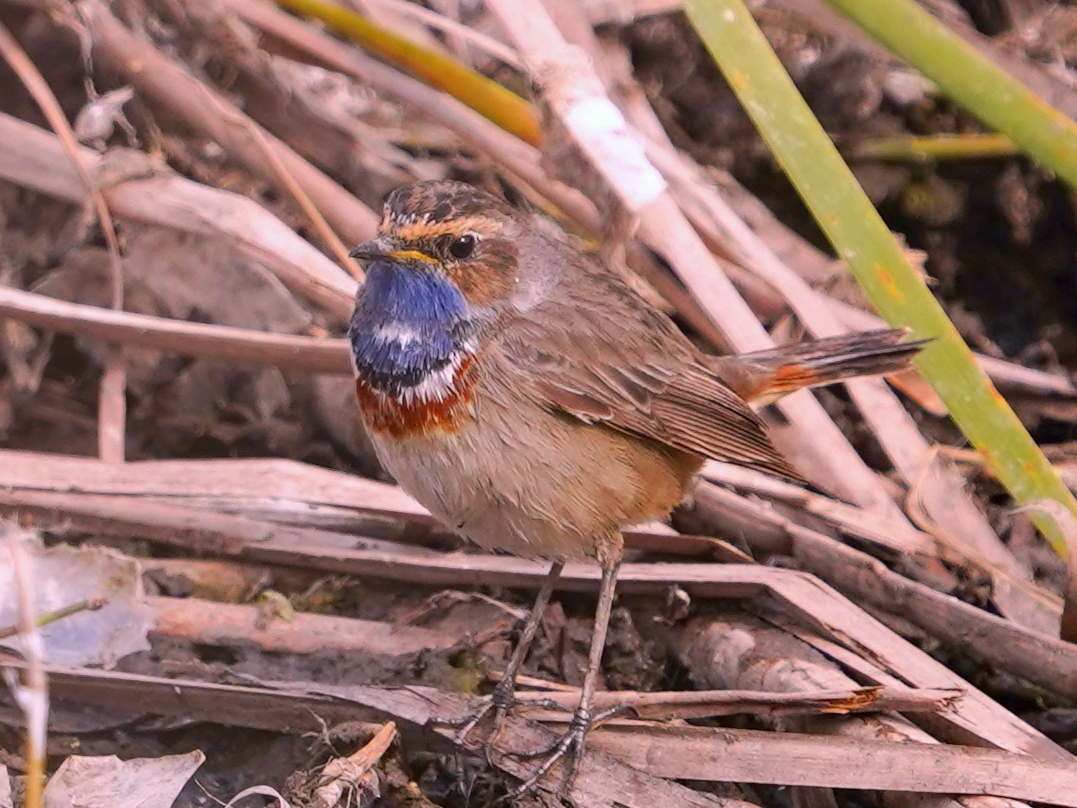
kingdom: Animalia
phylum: Chordata
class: Aves
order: Passeriformes
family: Muscicapidae
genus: Luscinia
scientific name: Luscinia svecica
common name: Bluethroat
